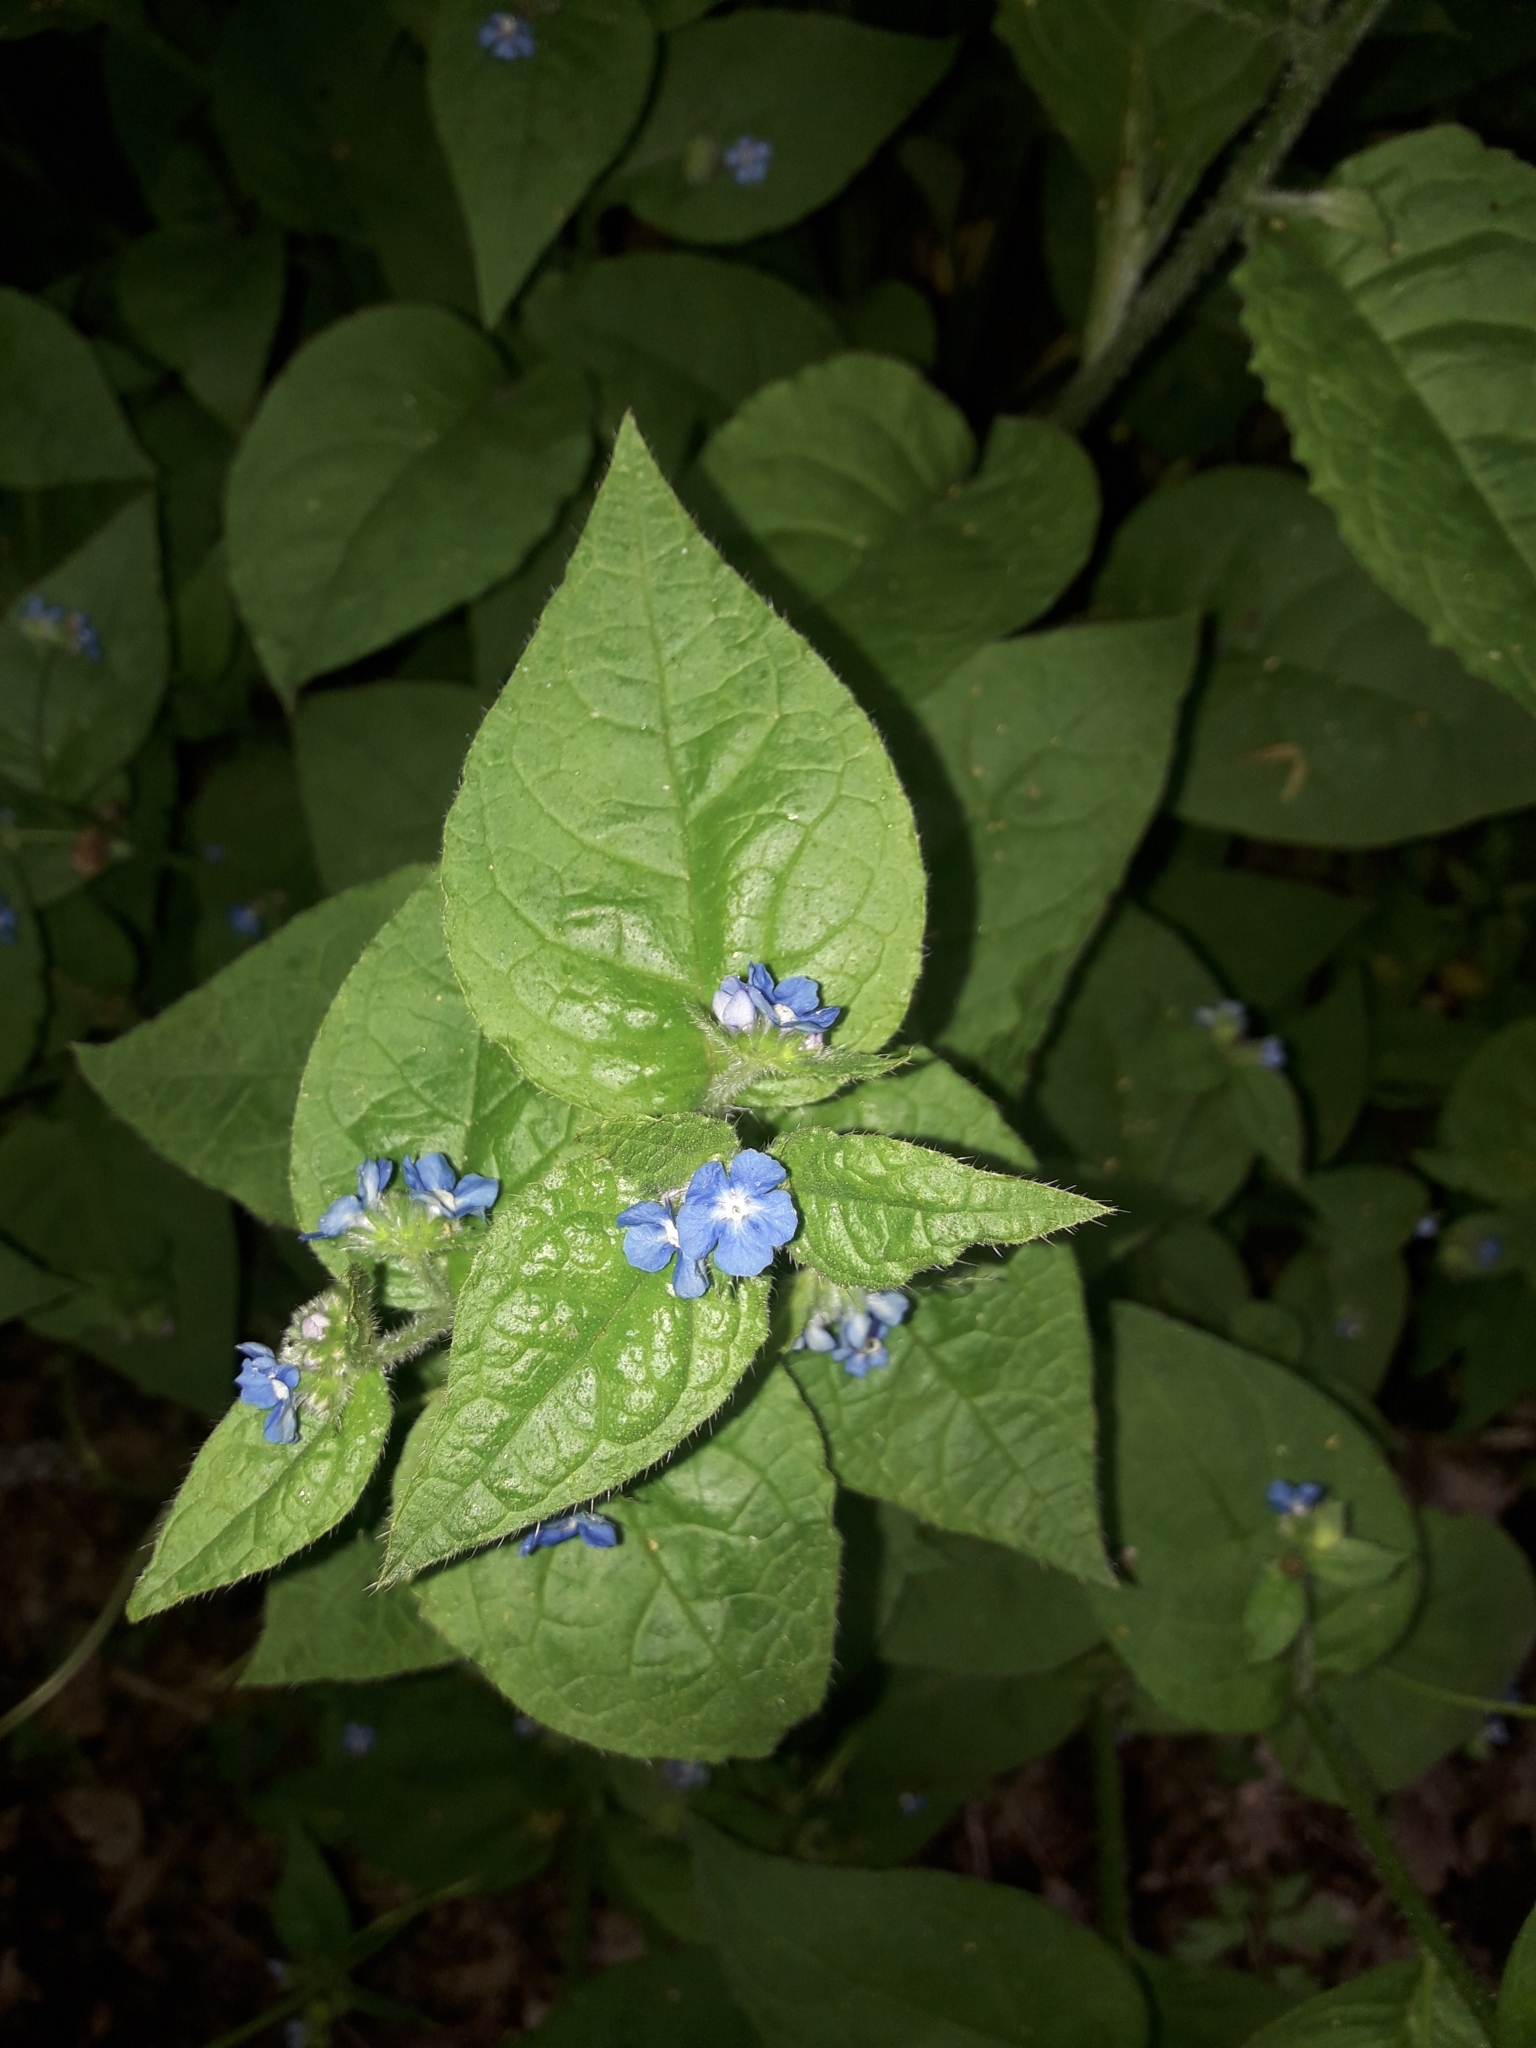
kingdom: Plantae
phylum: Tracheophyta
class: Magnoliopsida
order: Boraginales
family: Boraginaceae
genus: Pentaglottis
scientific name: Pentaglottis sempervirens
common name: Green alkanet
